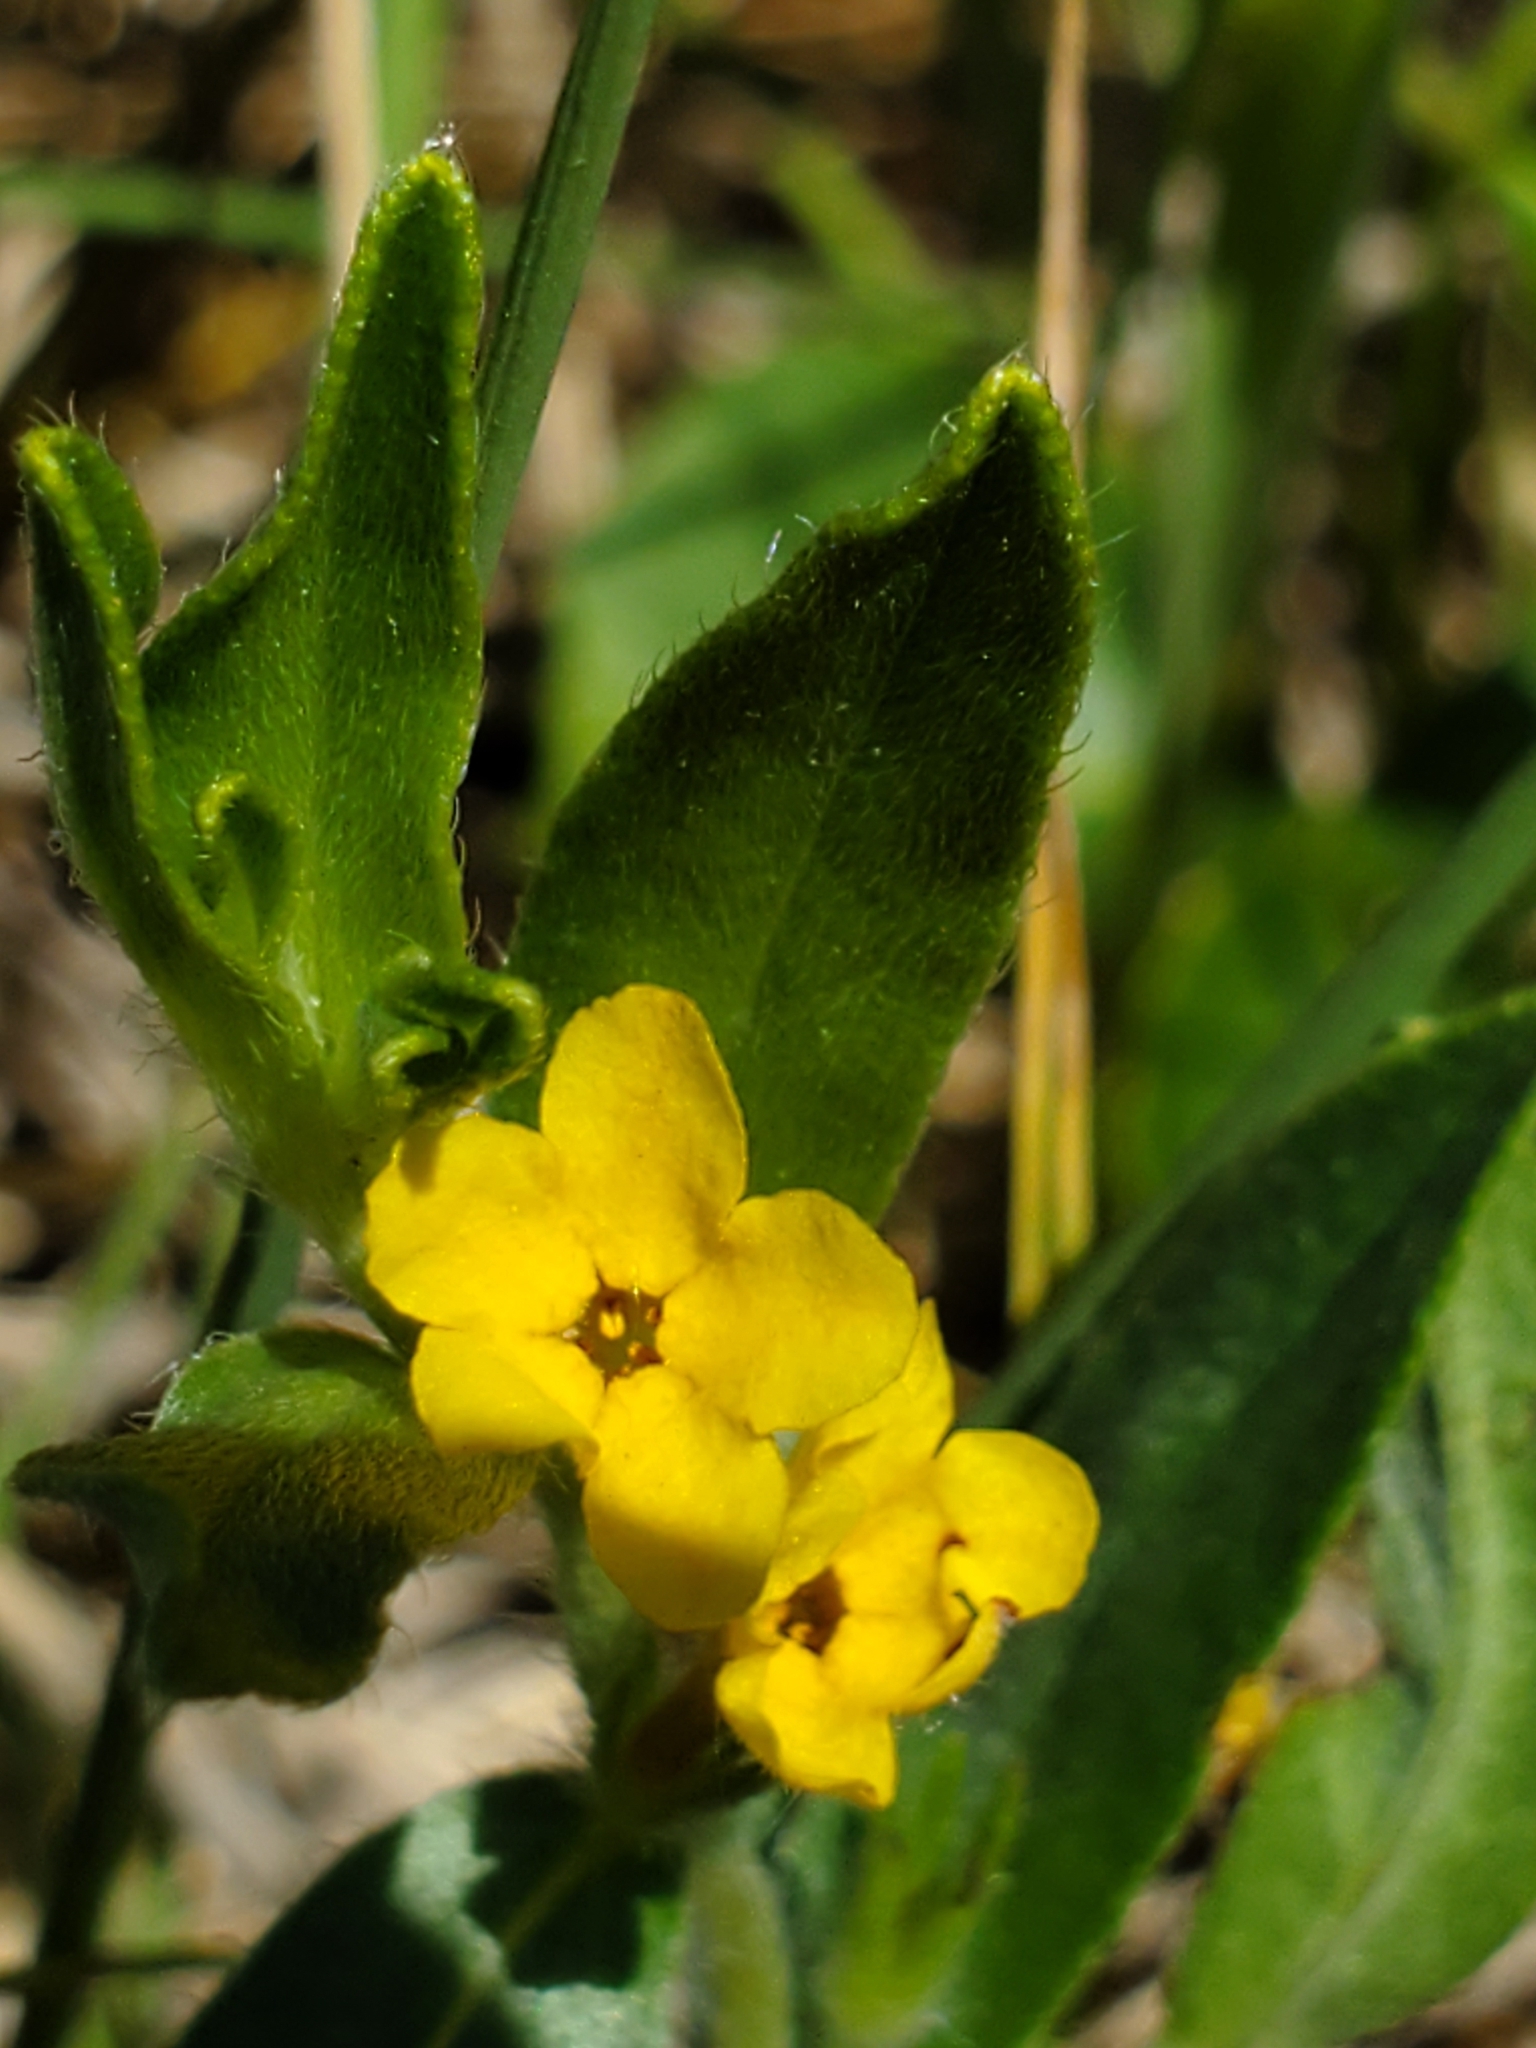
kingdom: Plantae
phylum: Tracheophyta
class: Magnoliopsida
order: Boraginales
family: Boraginaceae
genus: Lithospermum
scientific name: Lithospermum canescens
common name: Hoary puccoon
